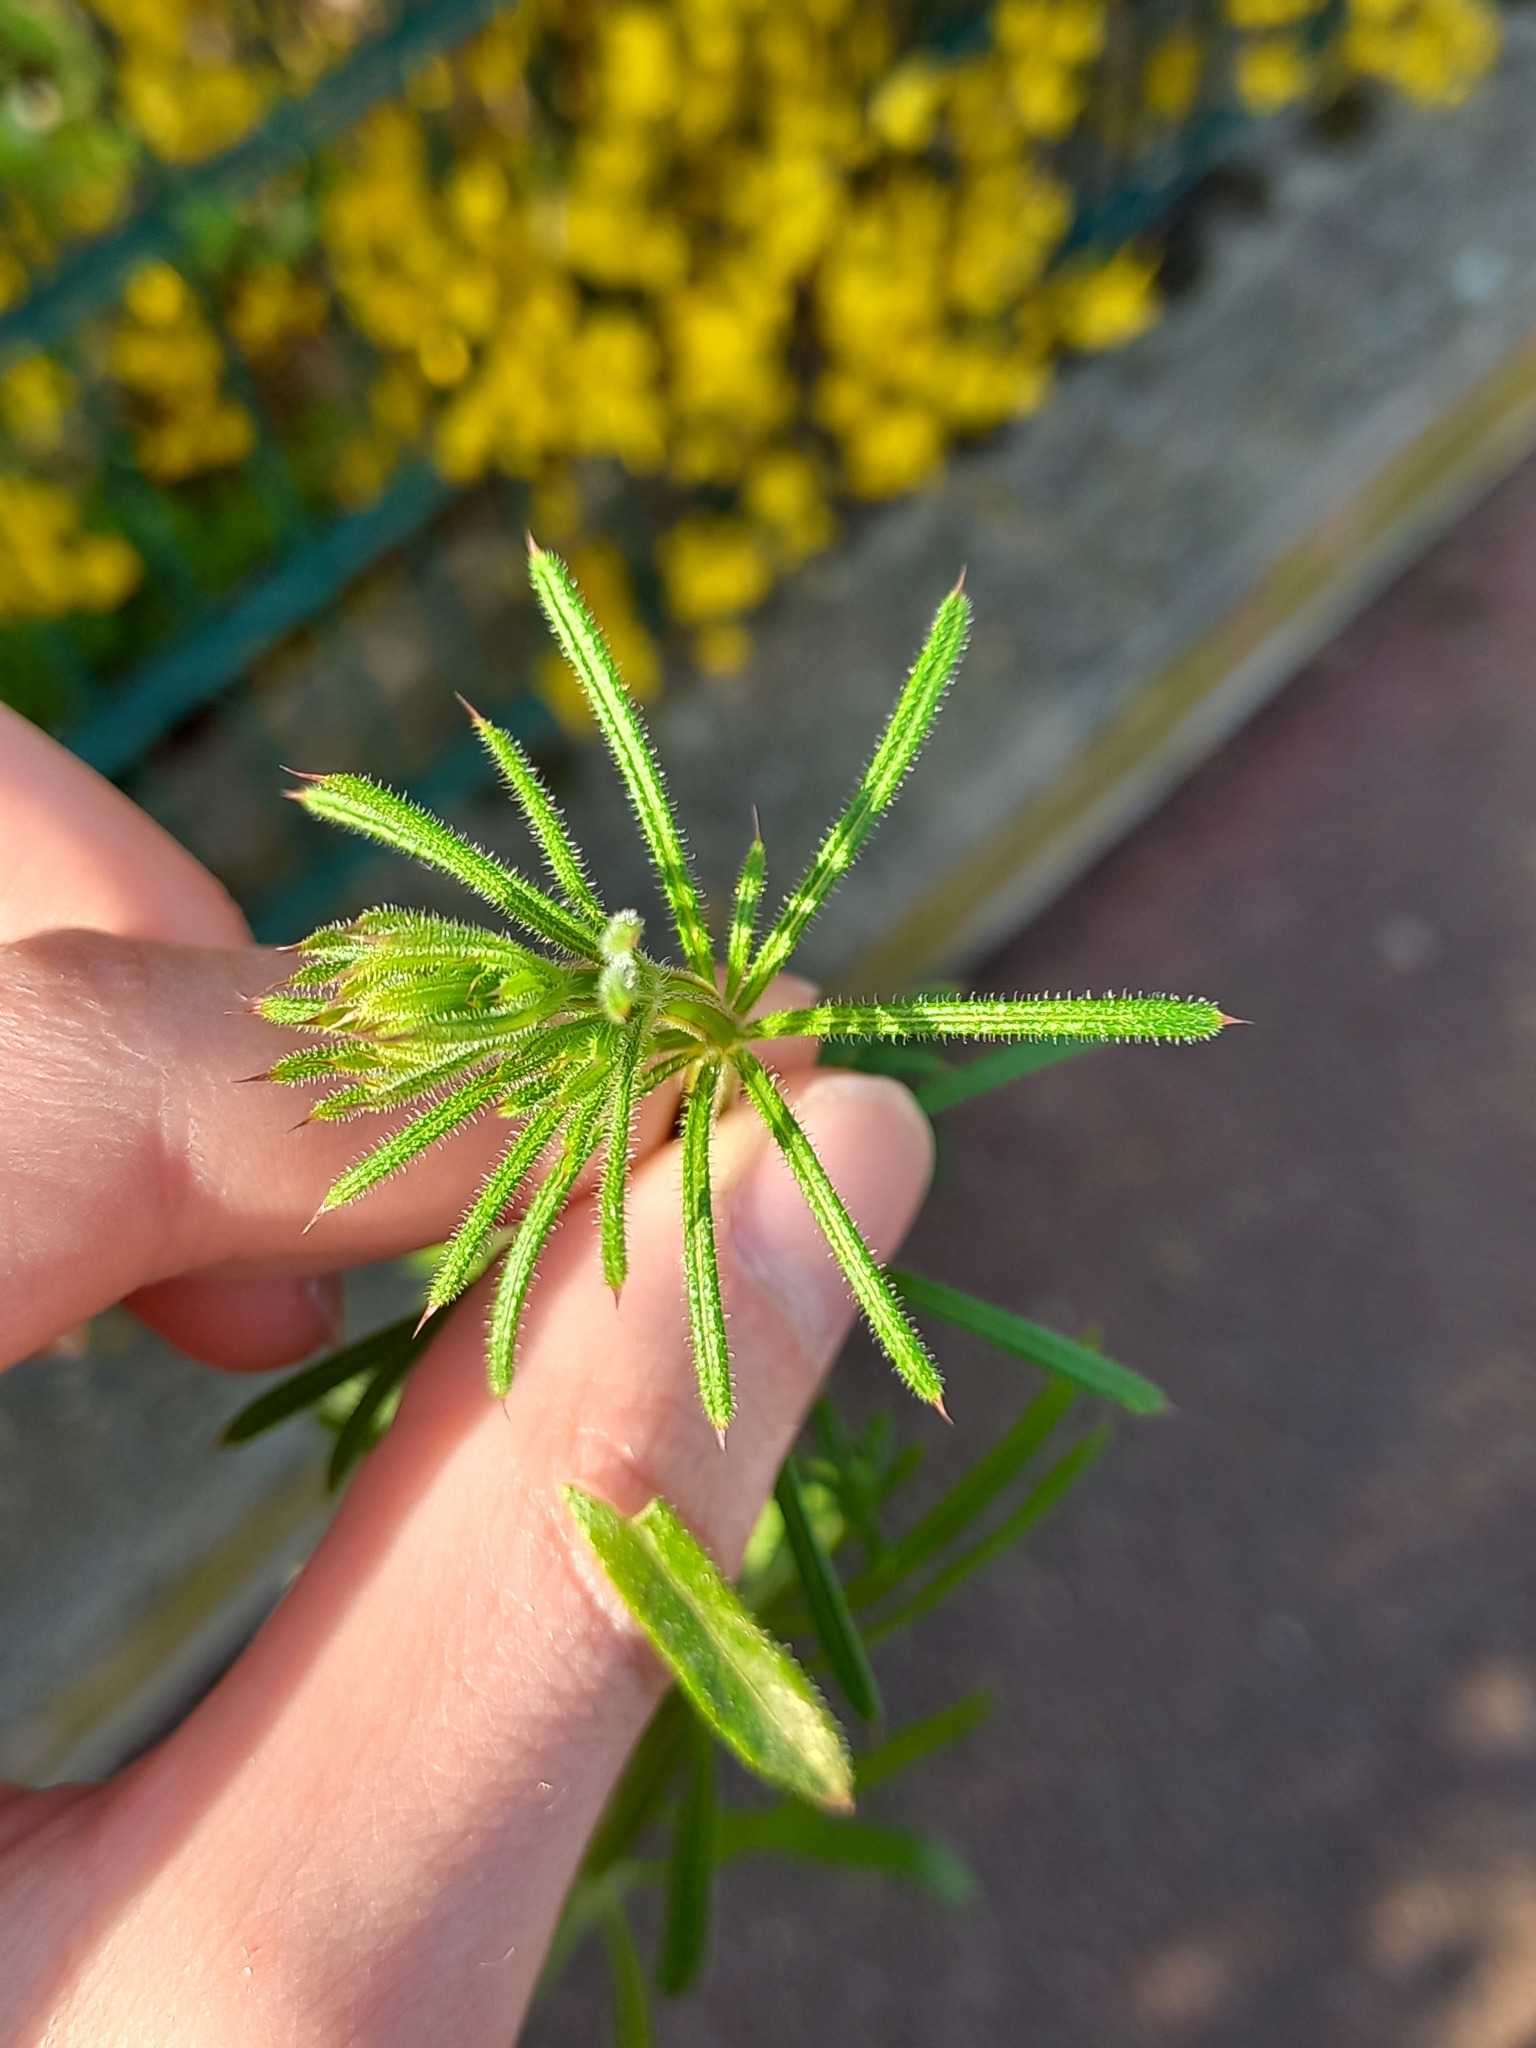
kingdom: Plantae
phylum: Tracheophyta
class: Magnoliopsida
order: Gentianales
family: Rubiaceae
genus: Galium
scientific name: Galium aparine
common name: Cleavers
